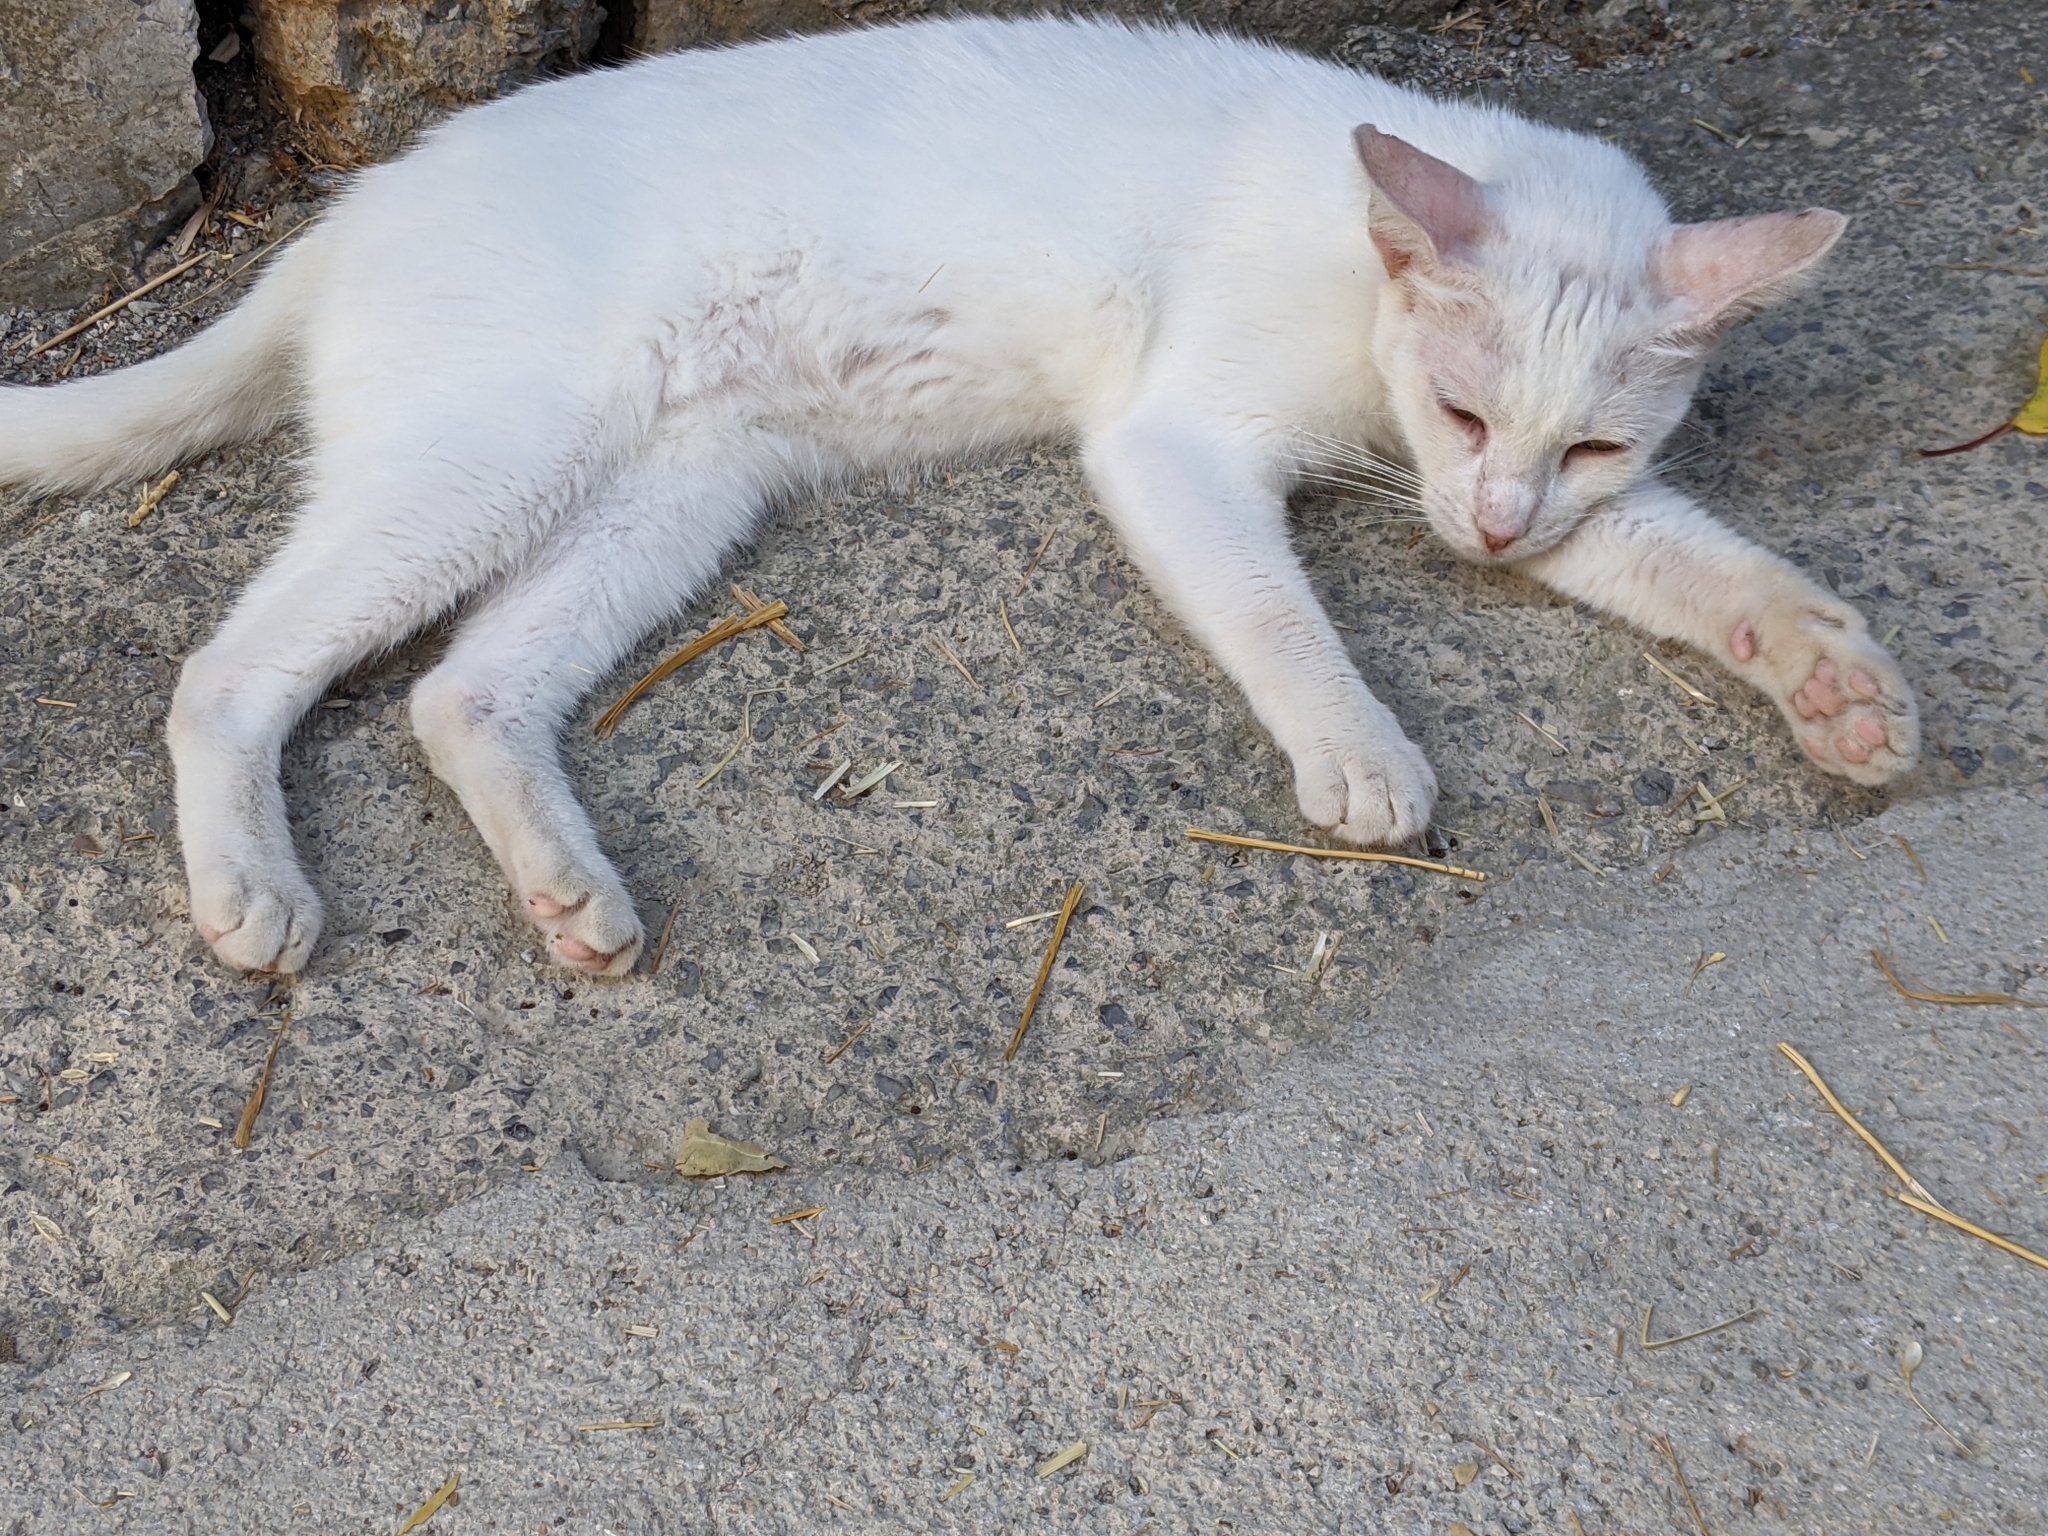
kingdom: Animalia
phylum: Chordata
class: Mammalia
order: Carnivora
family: Felidae
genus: Felis
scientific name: Felis catus
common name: Domestic cat
